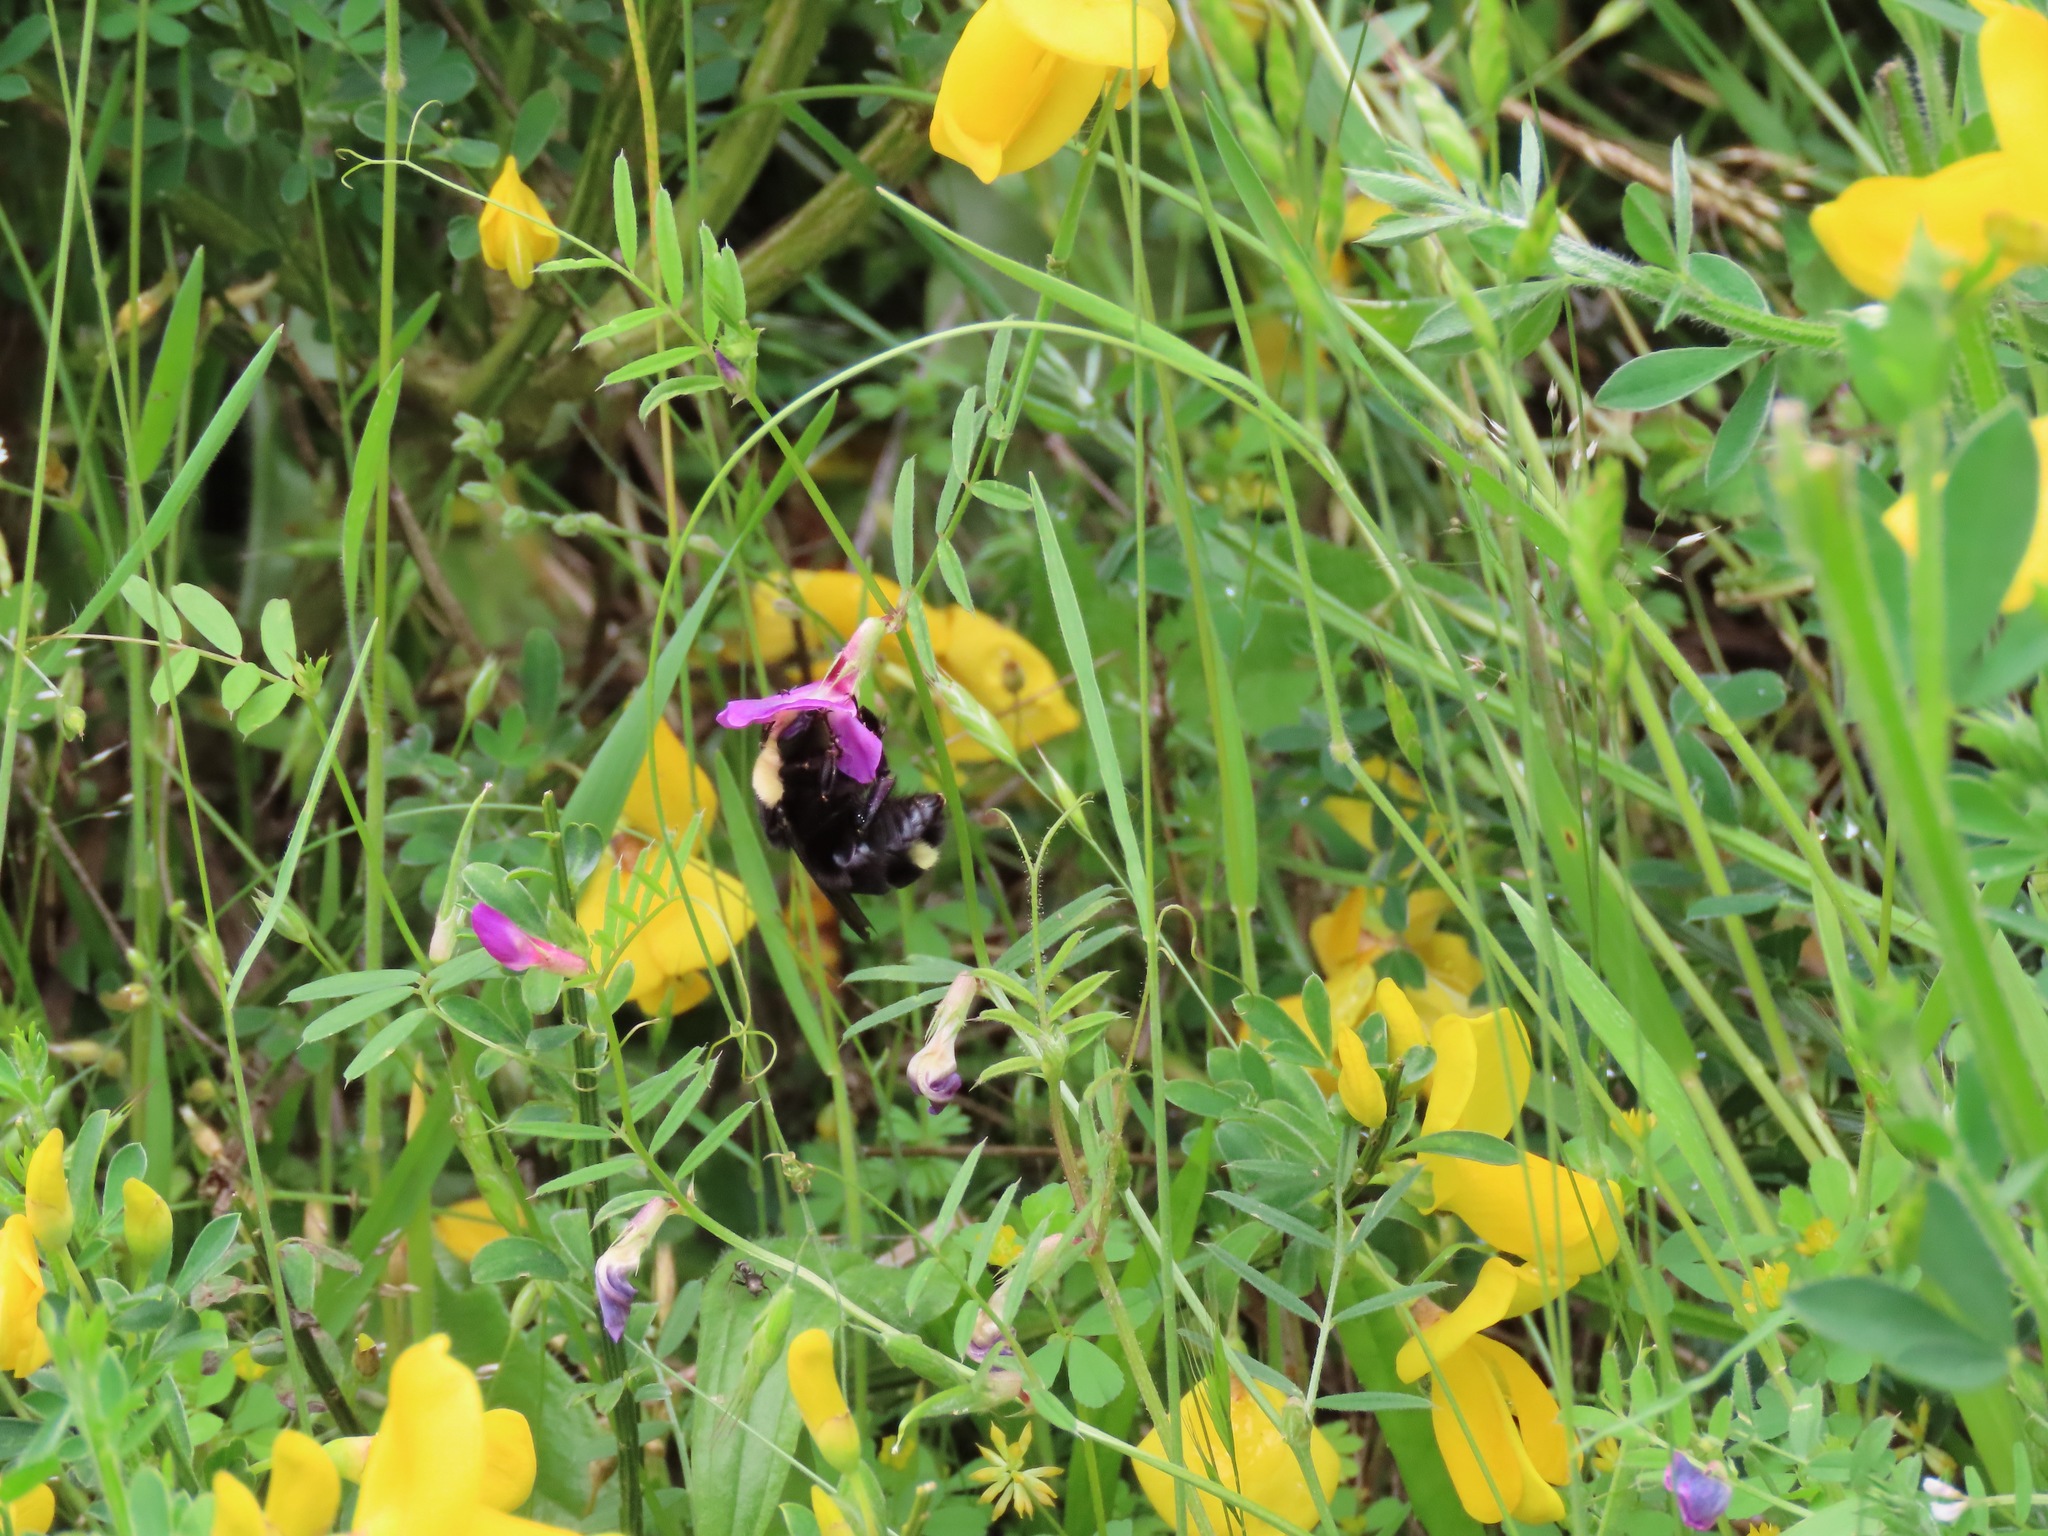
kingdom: Animalia
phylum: Arthropoda
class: Insecta
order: Hymenoptera
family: Apidae
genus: Bombus
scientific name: Bombus vosnesenskii
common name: Vosnesensky bumble bee
